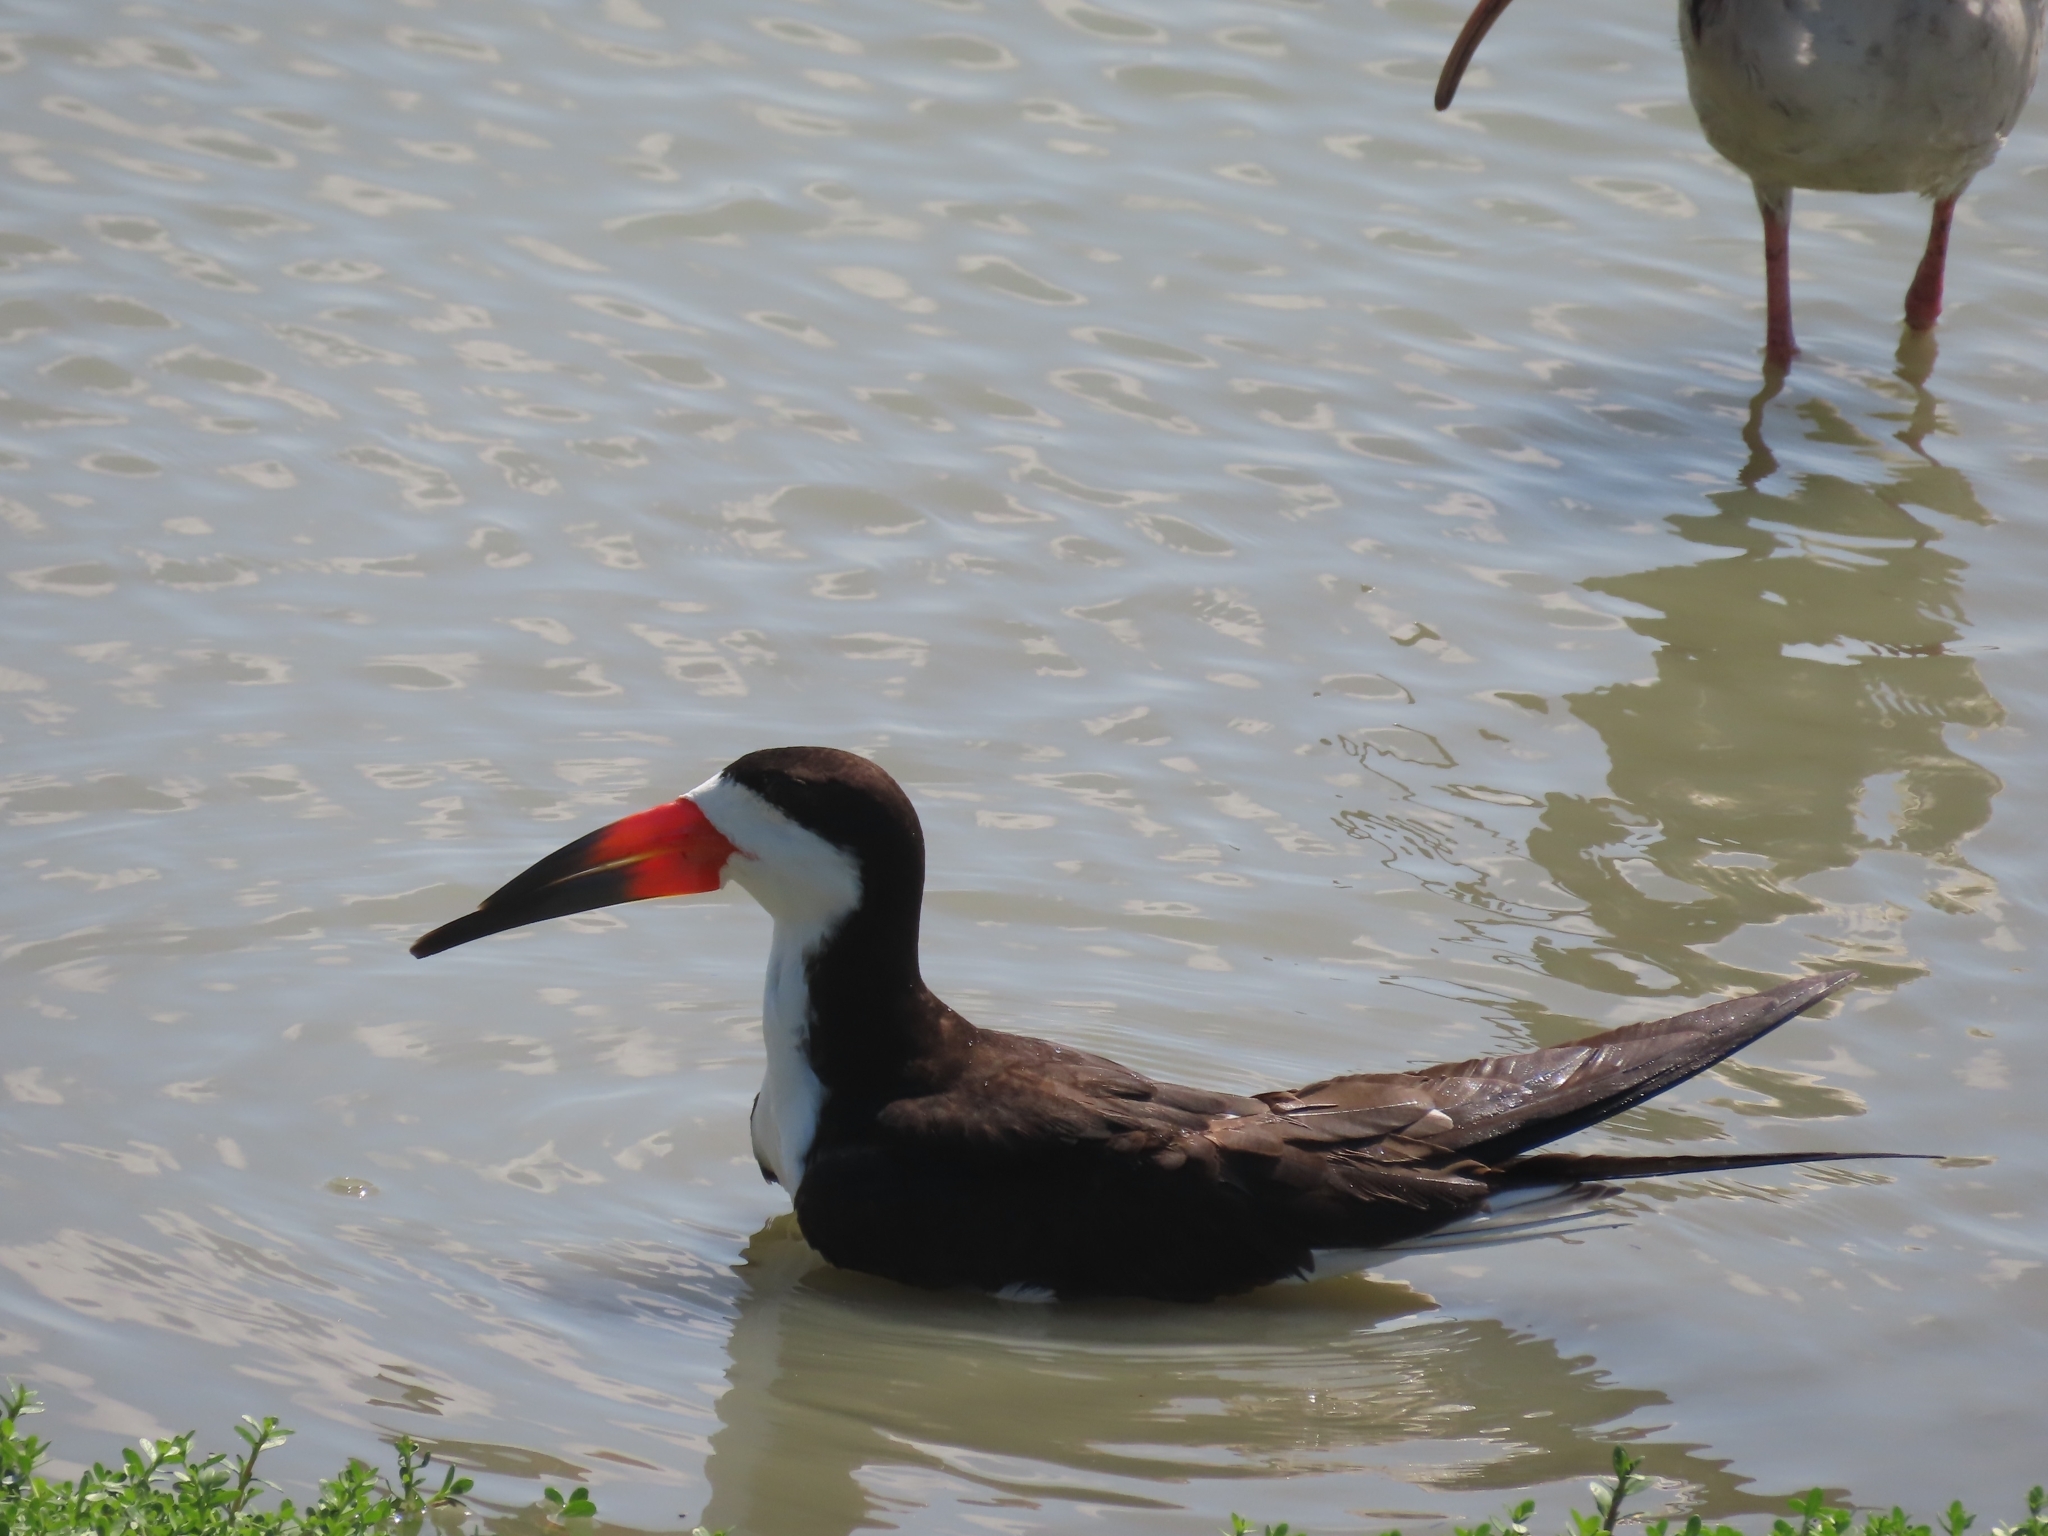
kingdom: Animalia
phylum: Chordata
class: Aves
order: Charadriiformes
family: Laridae
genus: Rynchops
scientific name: Rynchops niger
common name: Black skimmer
